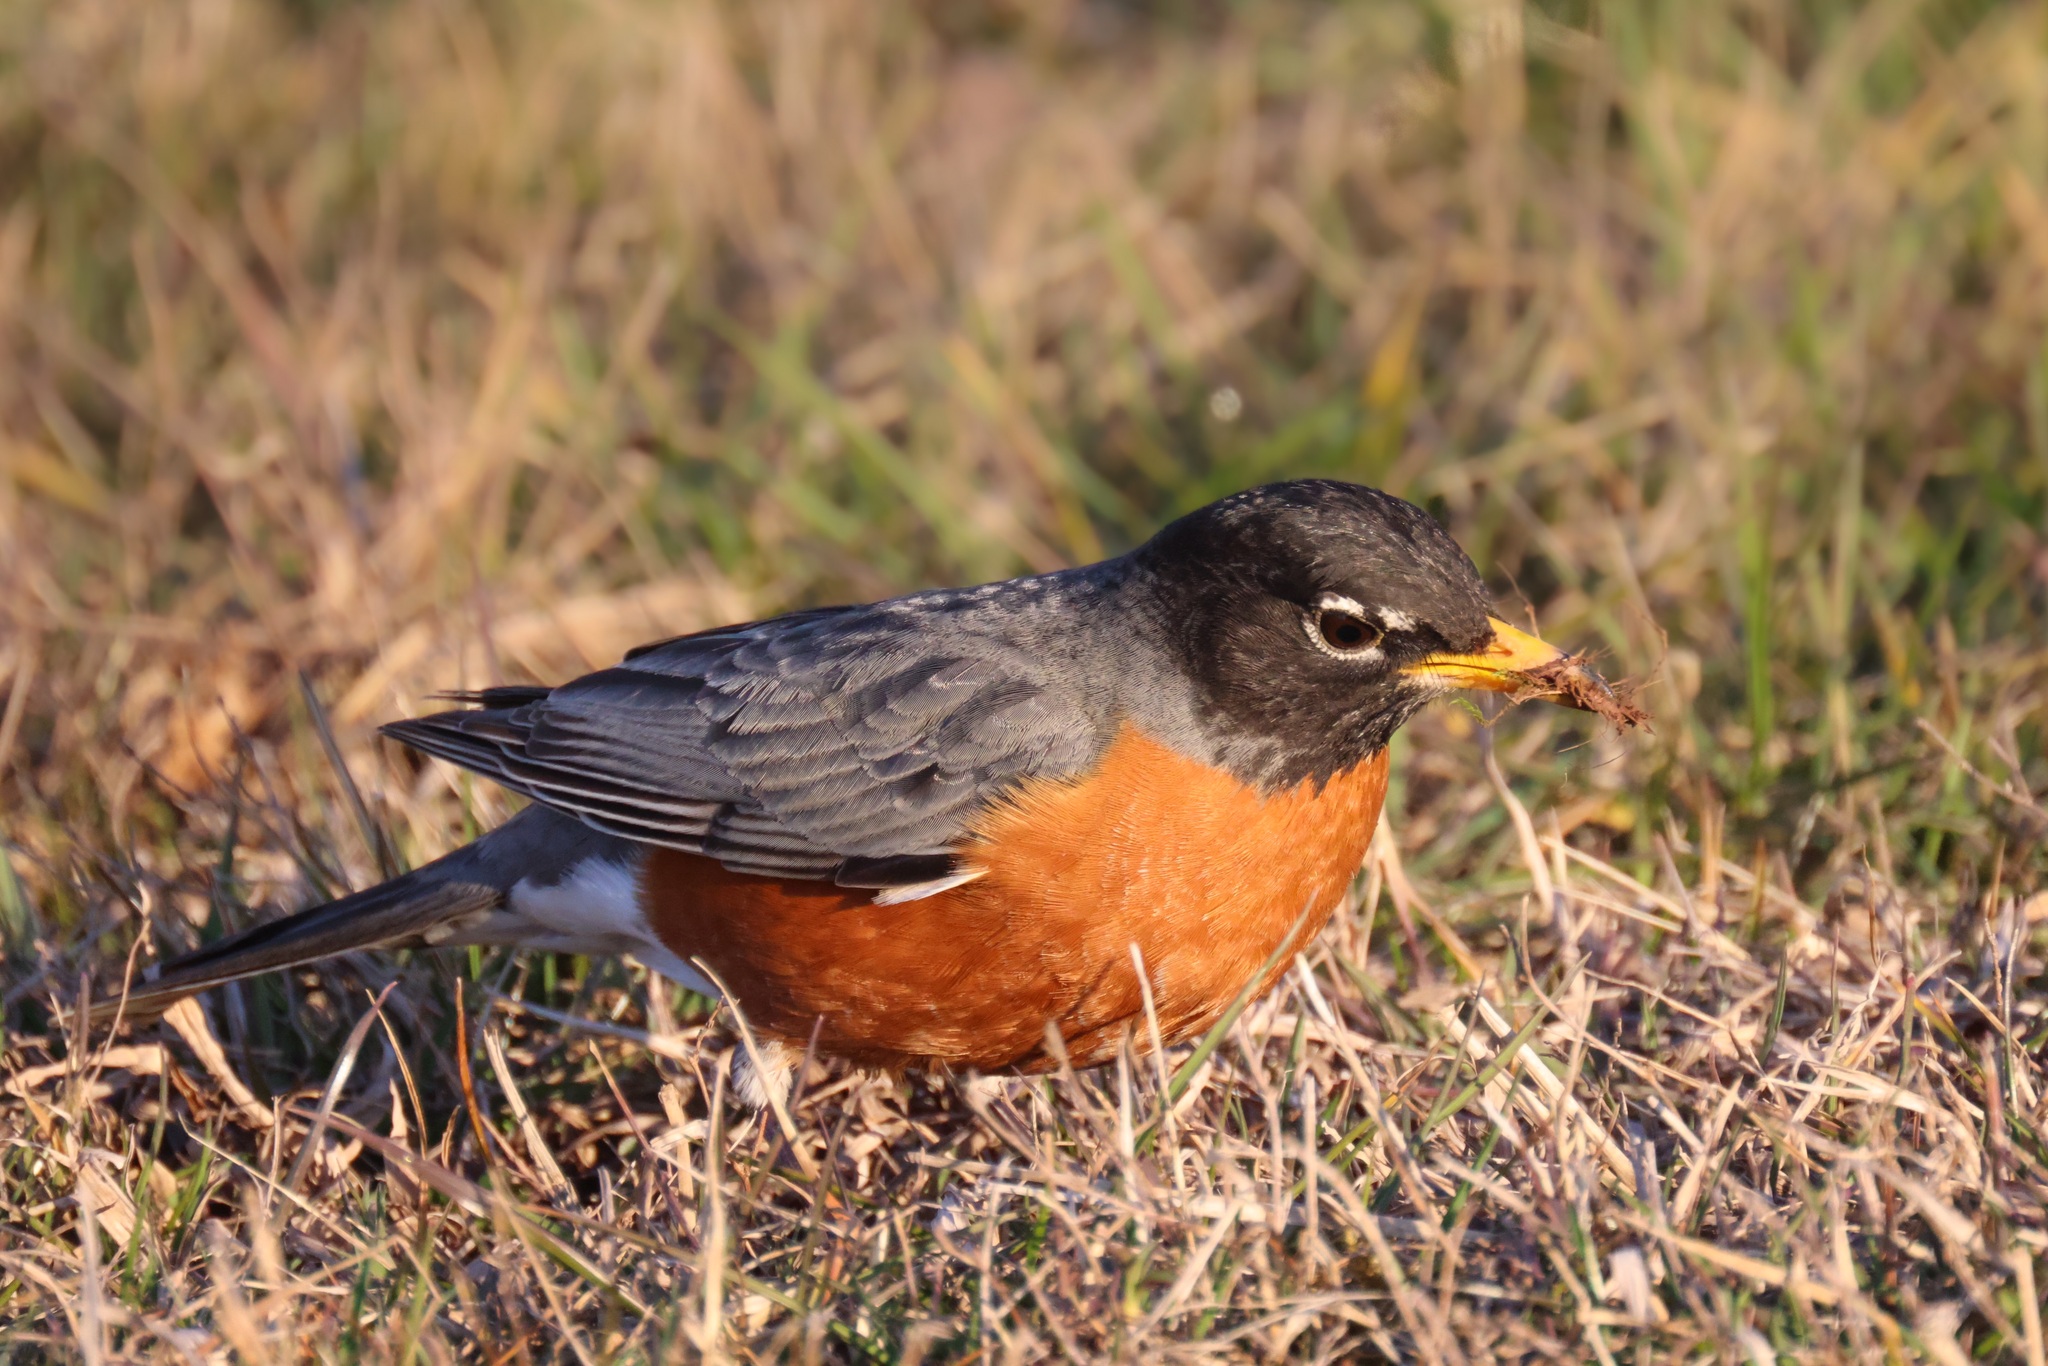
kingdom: Animalia
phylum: Chordata
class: Aves
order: Passeriformes
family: Turdidae
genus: Turdus
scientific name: Turdus migratorius
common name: American robin
